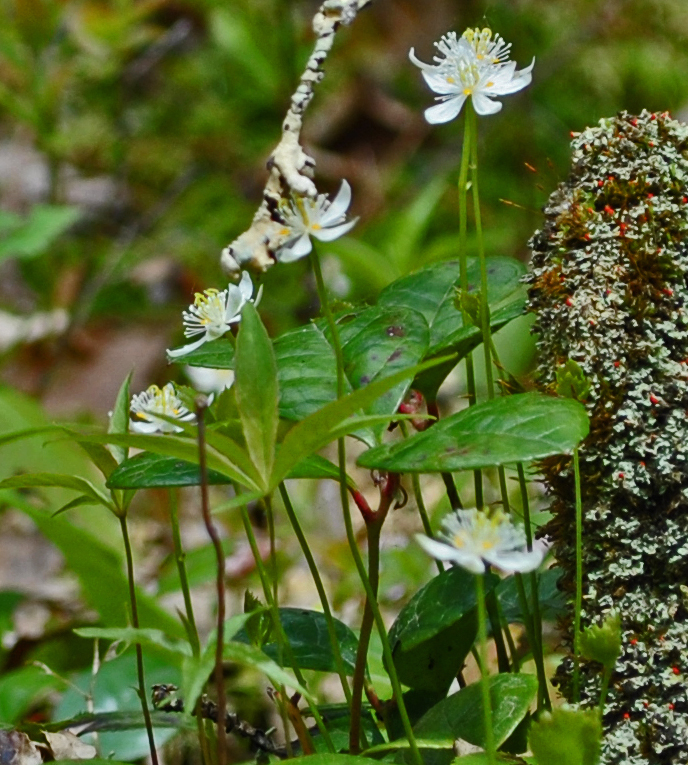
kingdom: Plantae
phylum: Tracheophyta
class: Magnoliopsida
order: Ranunculales
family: Ranunculaceae
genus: Coptis
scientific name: Coptis trifolia
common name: Canker-root
